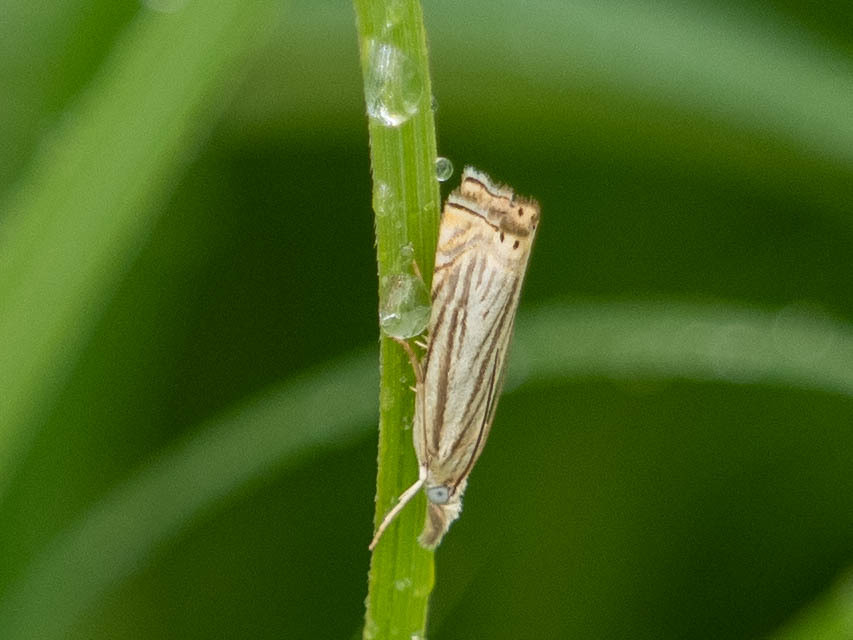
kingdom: Animalia
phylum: Arthropoda
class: Insecta
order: Lepidoptera
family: Crambidae
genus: Chrysoteuchia
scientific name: Chrysoteuchia topiarius
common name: Topiary grass-veneer
